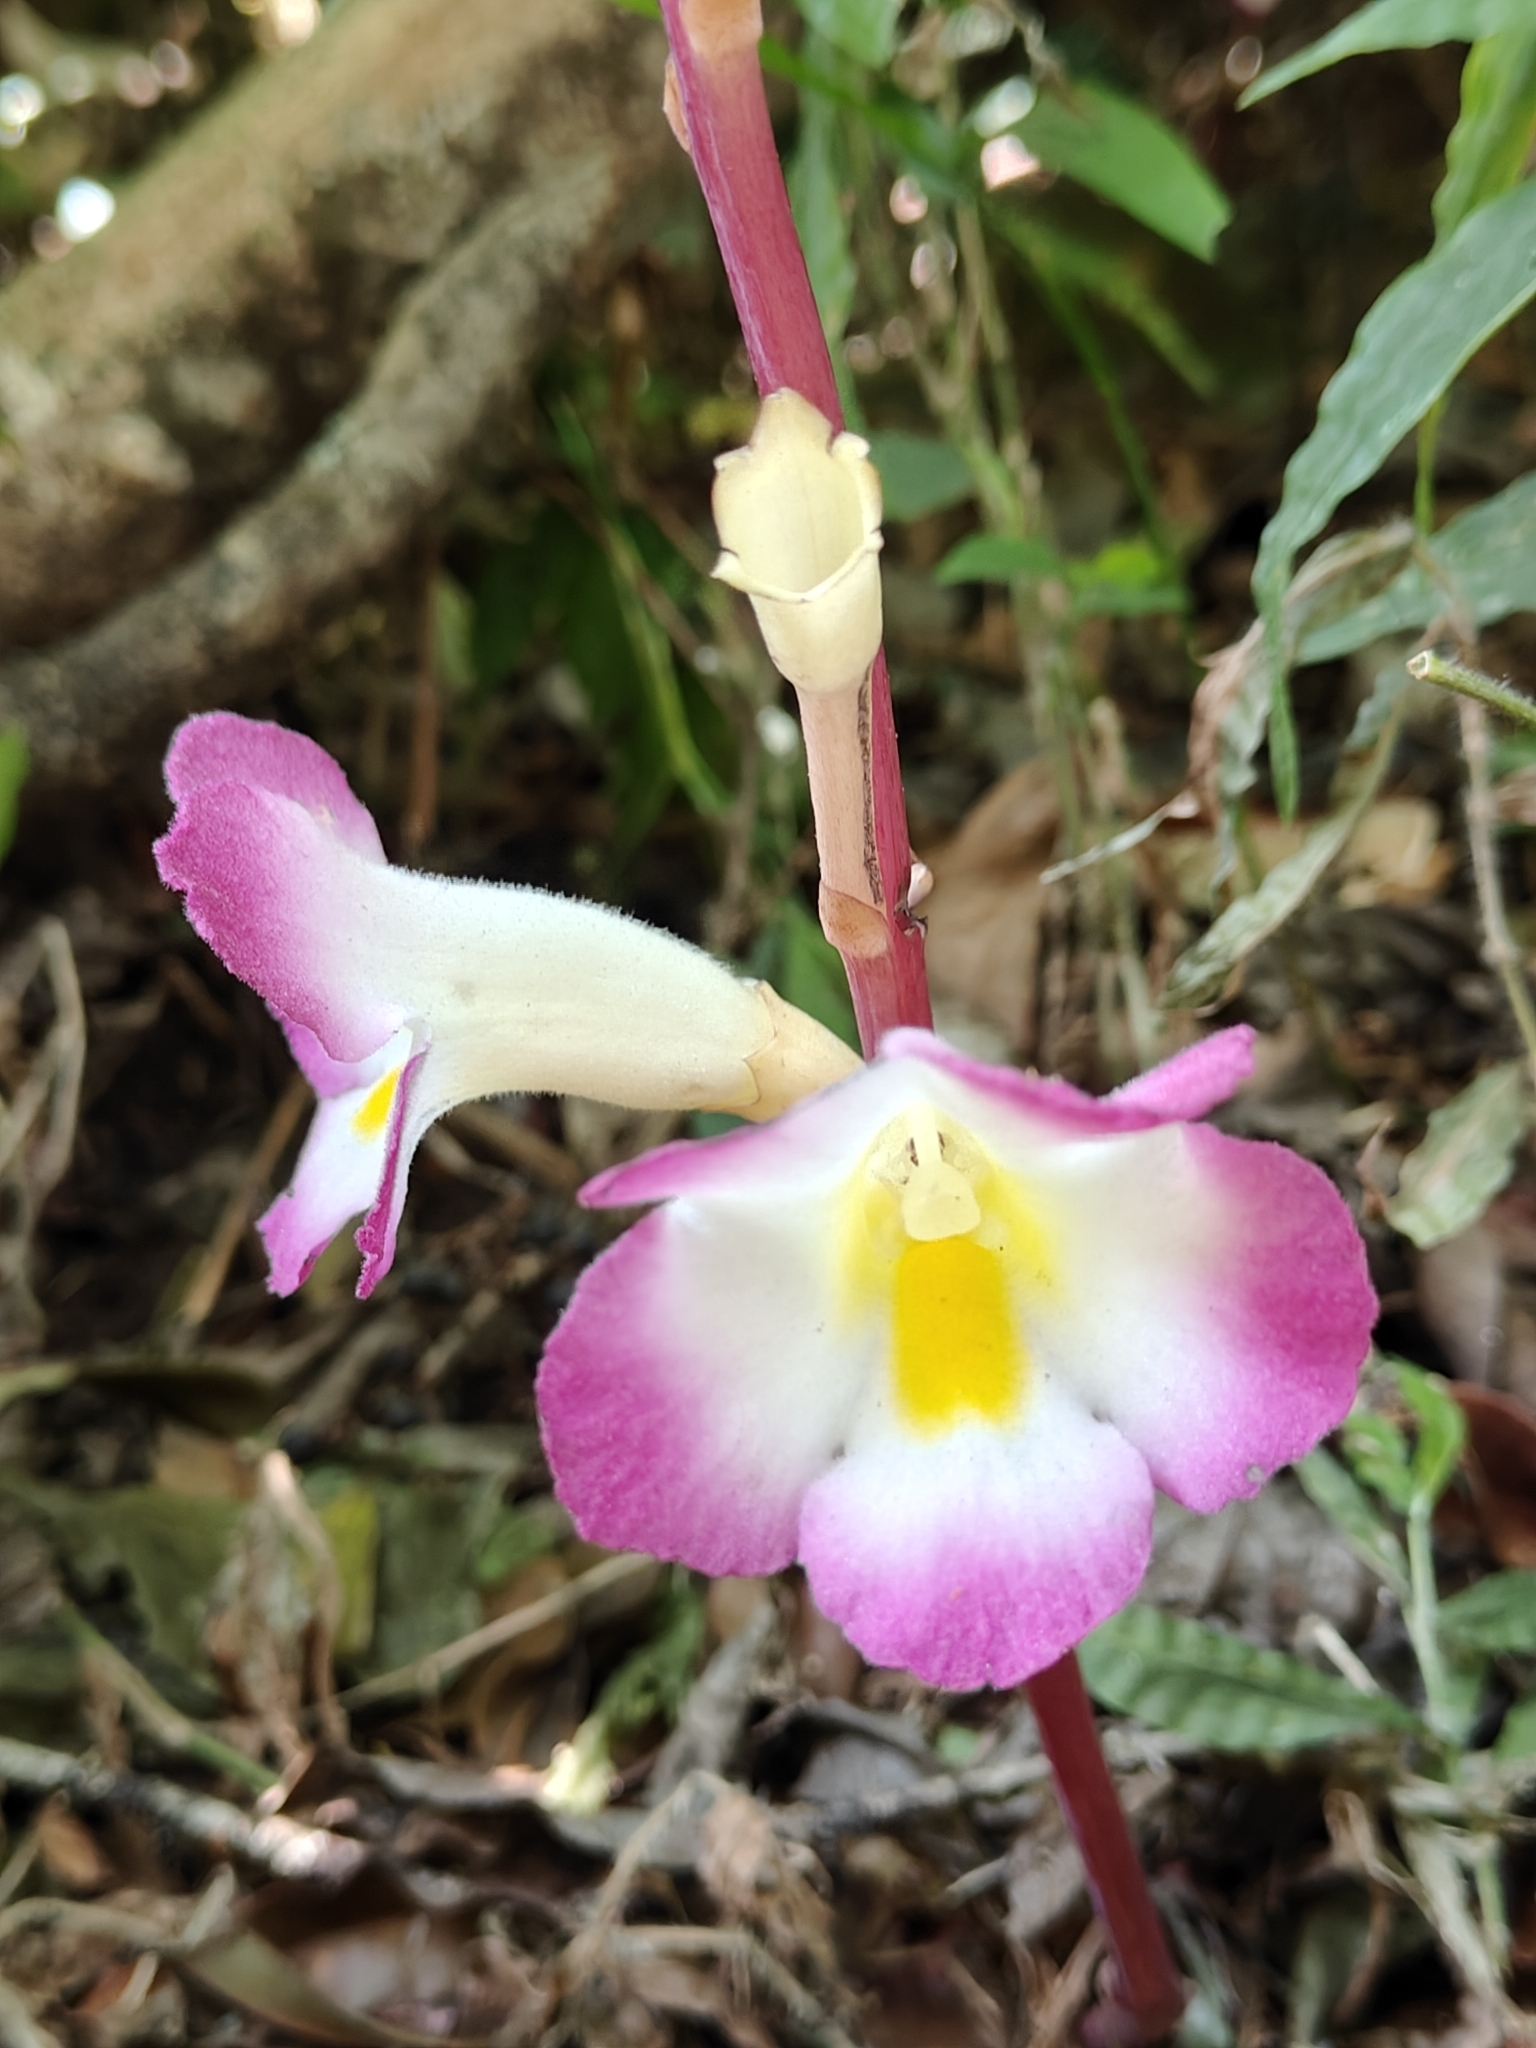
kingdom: Plantae
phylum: Tracheophyta
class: Magnoliopsida
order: Lamiales
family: Orobanchaceae
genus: Christisonia
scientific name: Christisonia tubulosa
